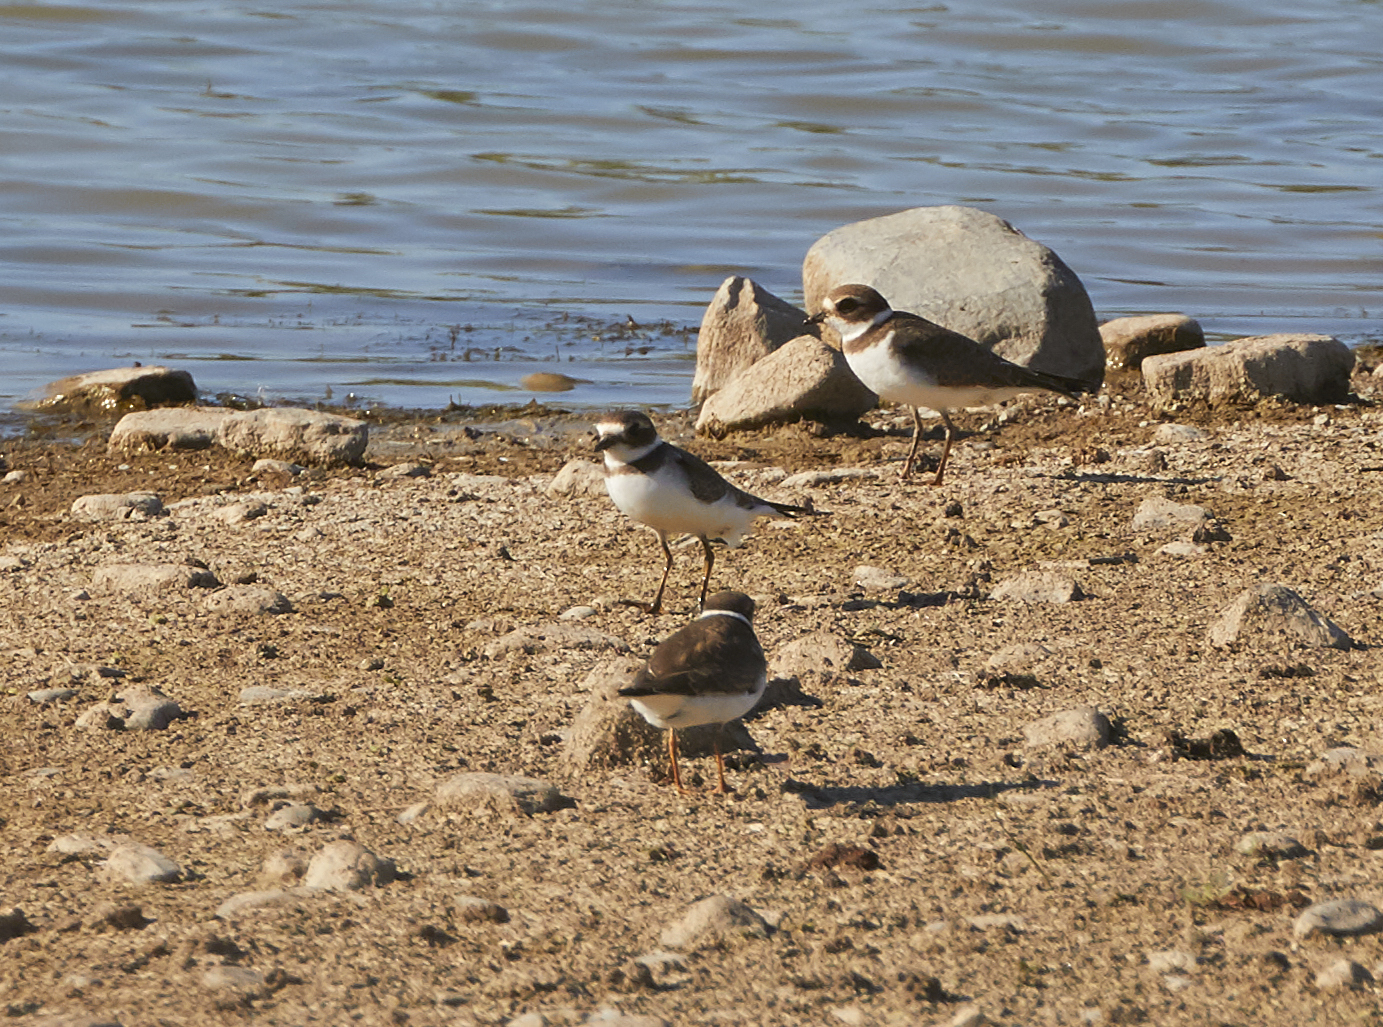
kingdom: Animalia
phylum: Chordata
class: Aves
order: Charadriiformes
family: Charadriidae
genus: Charadrius
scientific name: Charadrius semipalmatus
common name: Semipalmated plover
